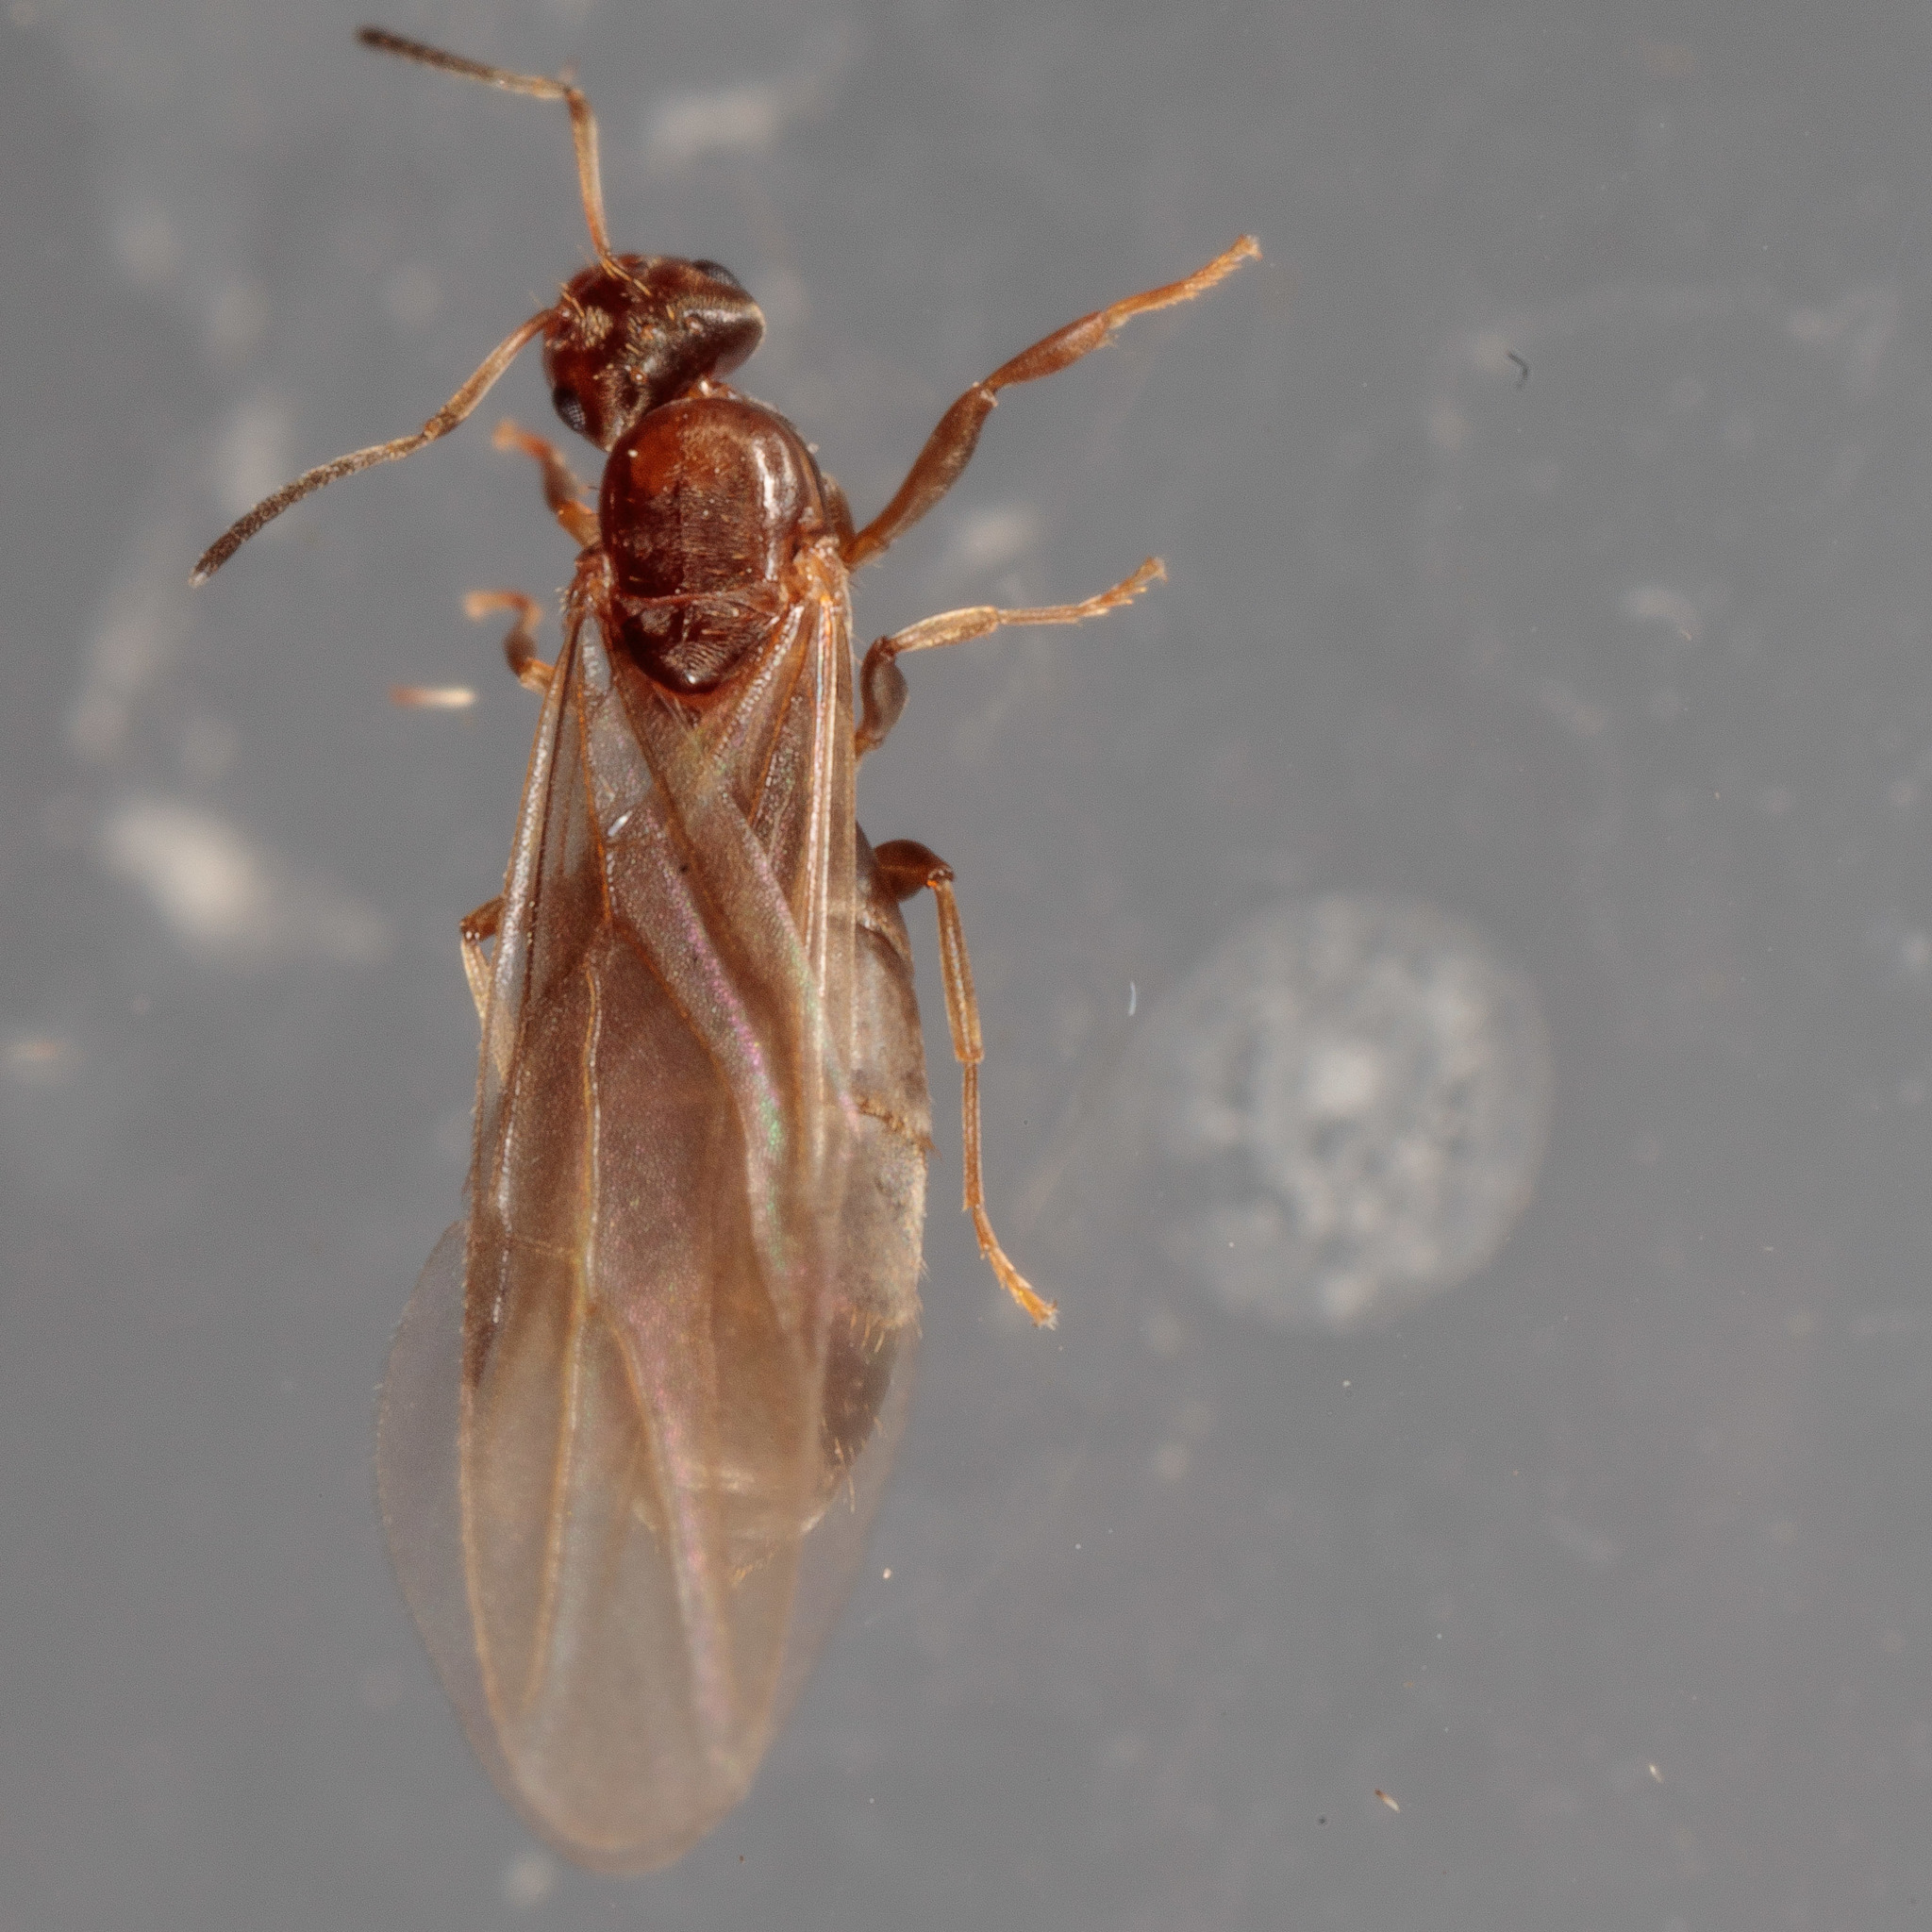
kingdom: Animalia
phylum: Arthropoda
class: Insecta
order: Hymenoptera
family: Formicidae
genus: Brachymyrmex
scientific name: Brachymyrmex patagonicus
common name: Dark rover ant
